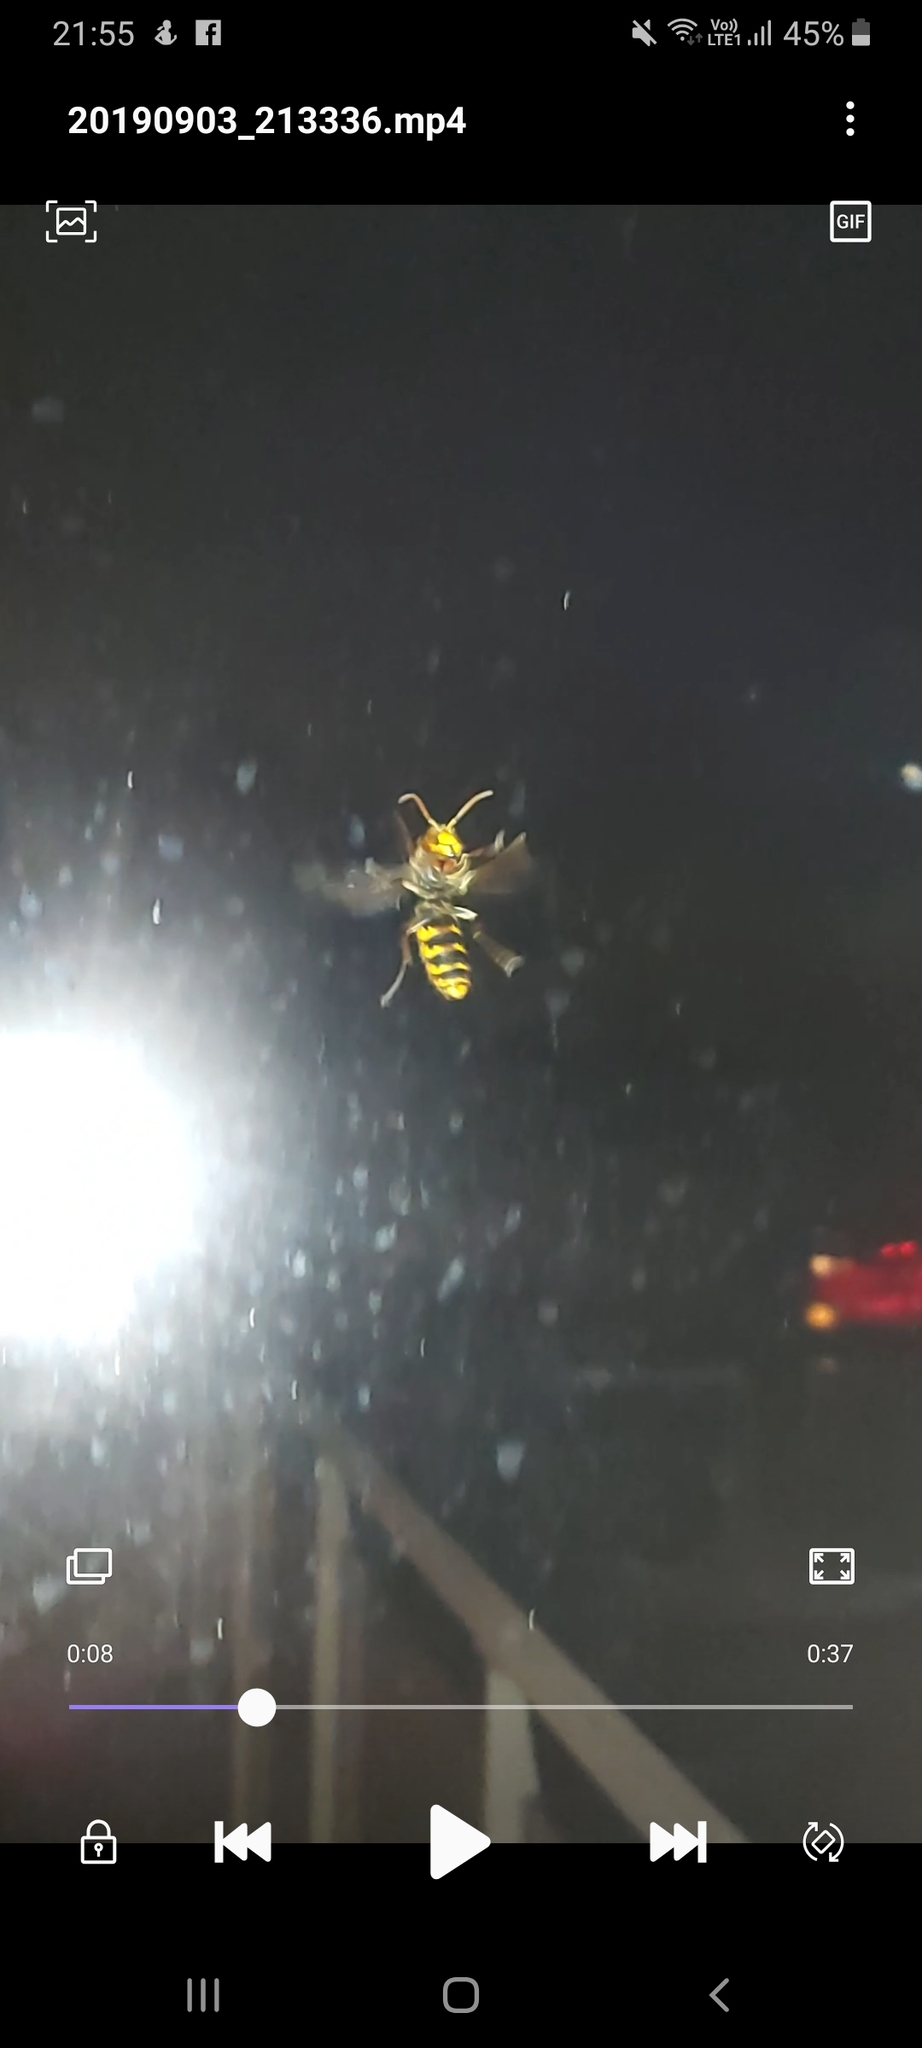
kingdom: Animalia
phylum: Arthropoda
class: Insecta
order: Hymenoptera
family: Vespidae
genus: Vespa
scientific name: Vespa crabro
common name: Hornet
